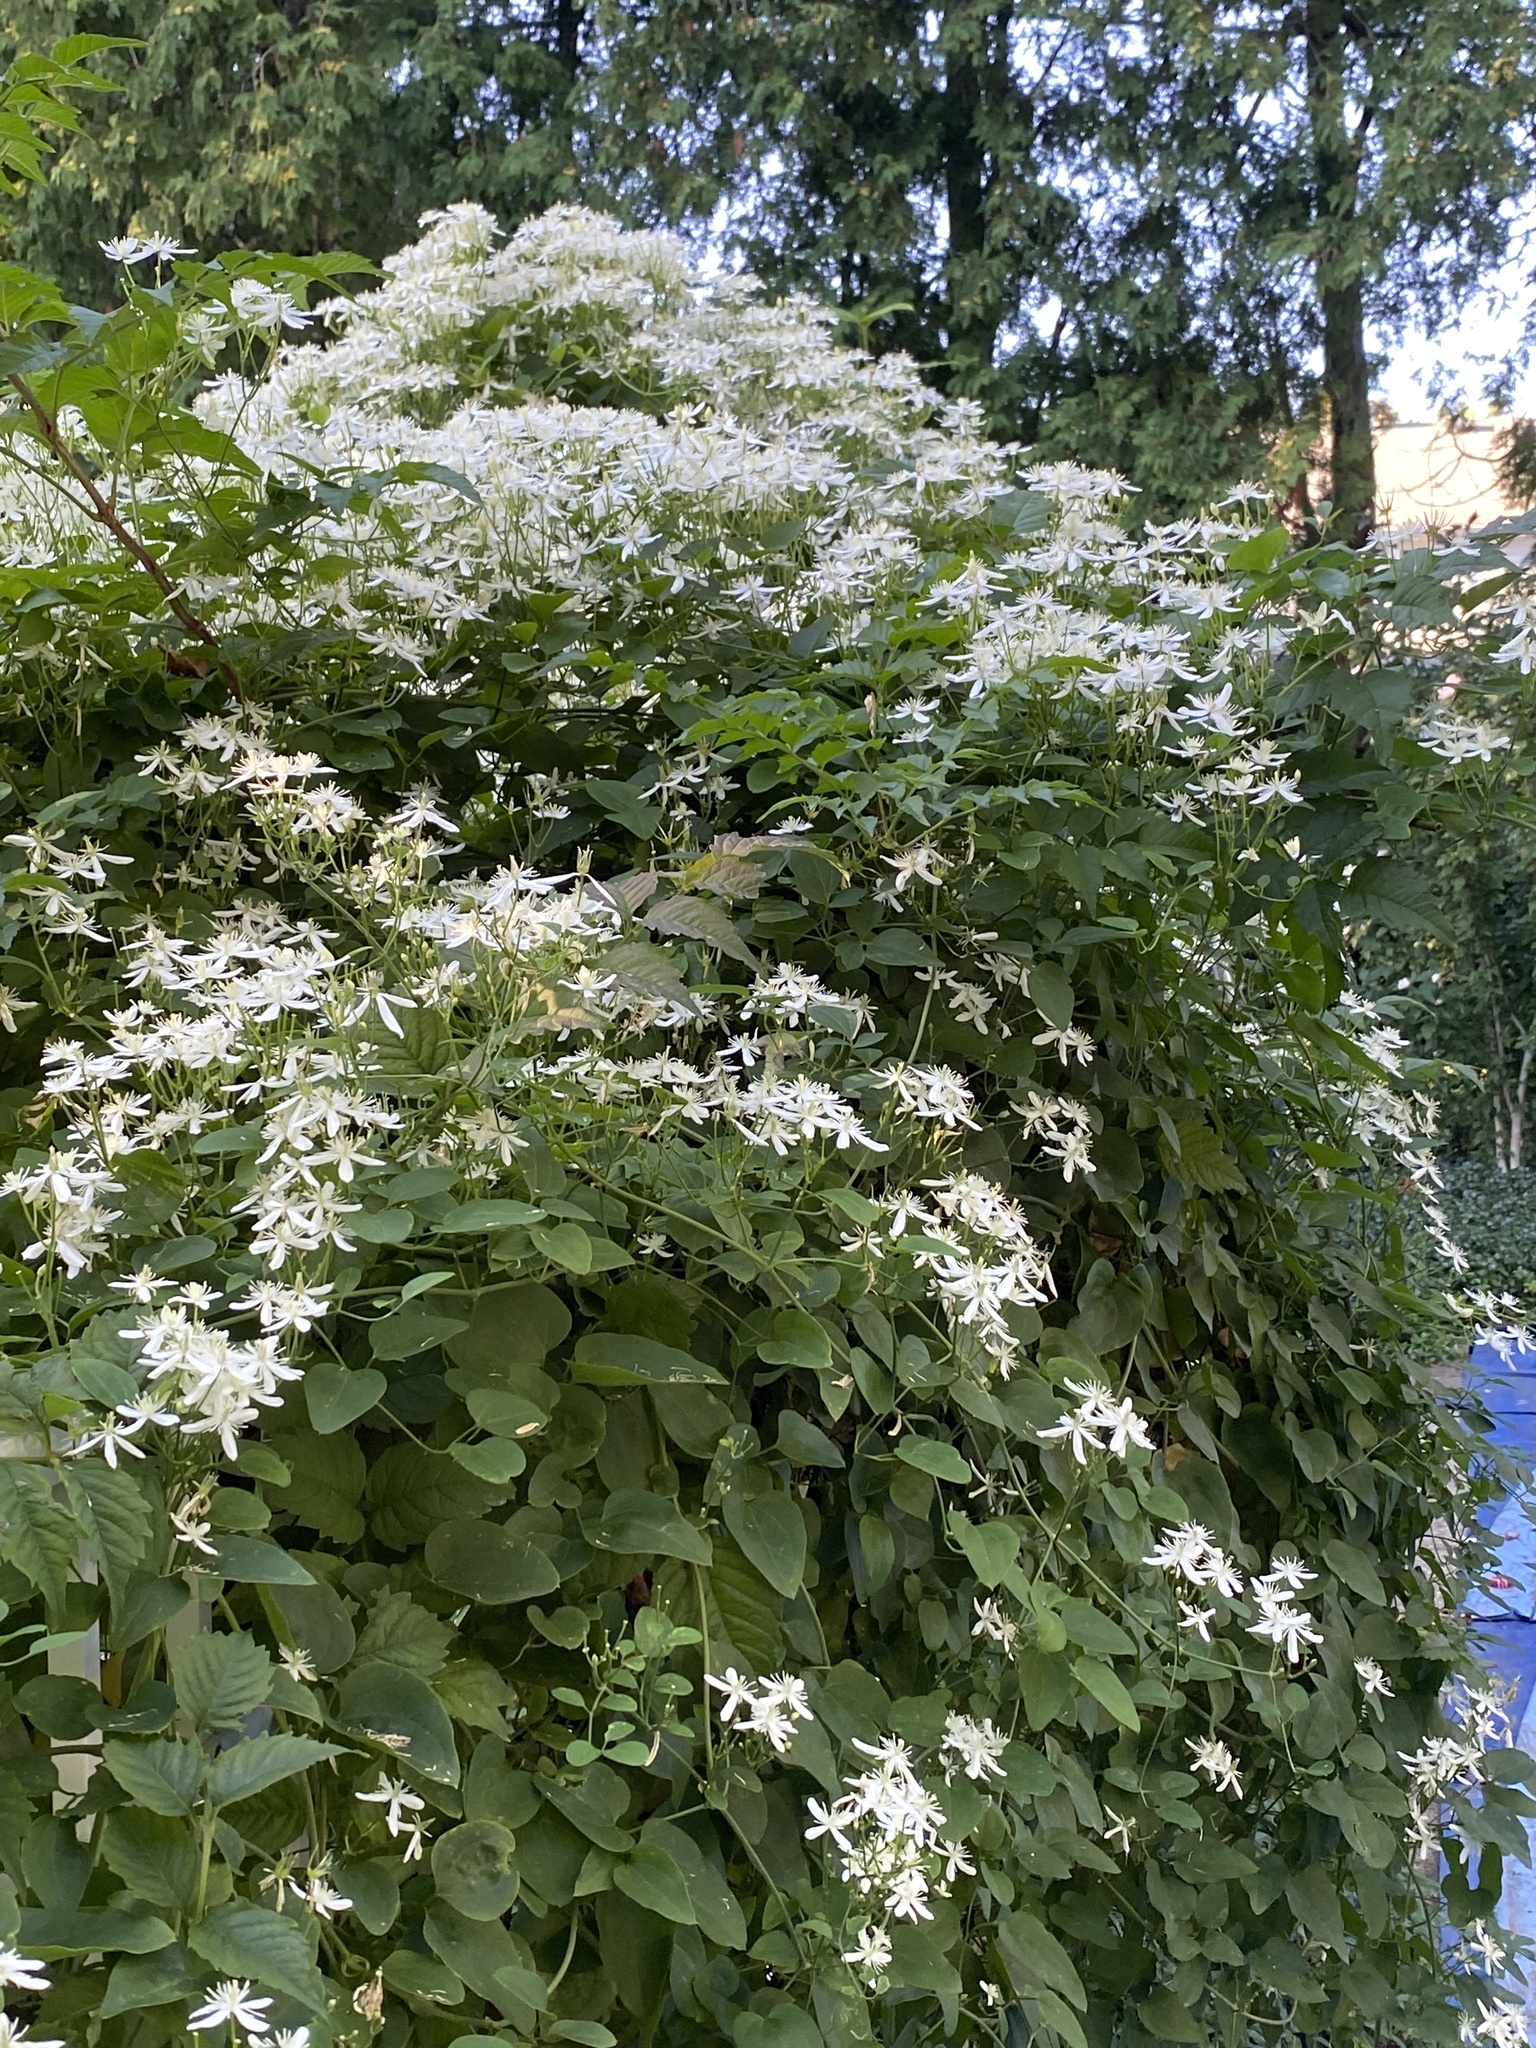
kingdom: Plantae
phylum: Tracheophyta
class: Magnoliopsida
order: Ranunculales
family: Ranunculaceae
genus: Clematis
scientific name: Clematis terniflora
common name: Sweet autumn clematis
